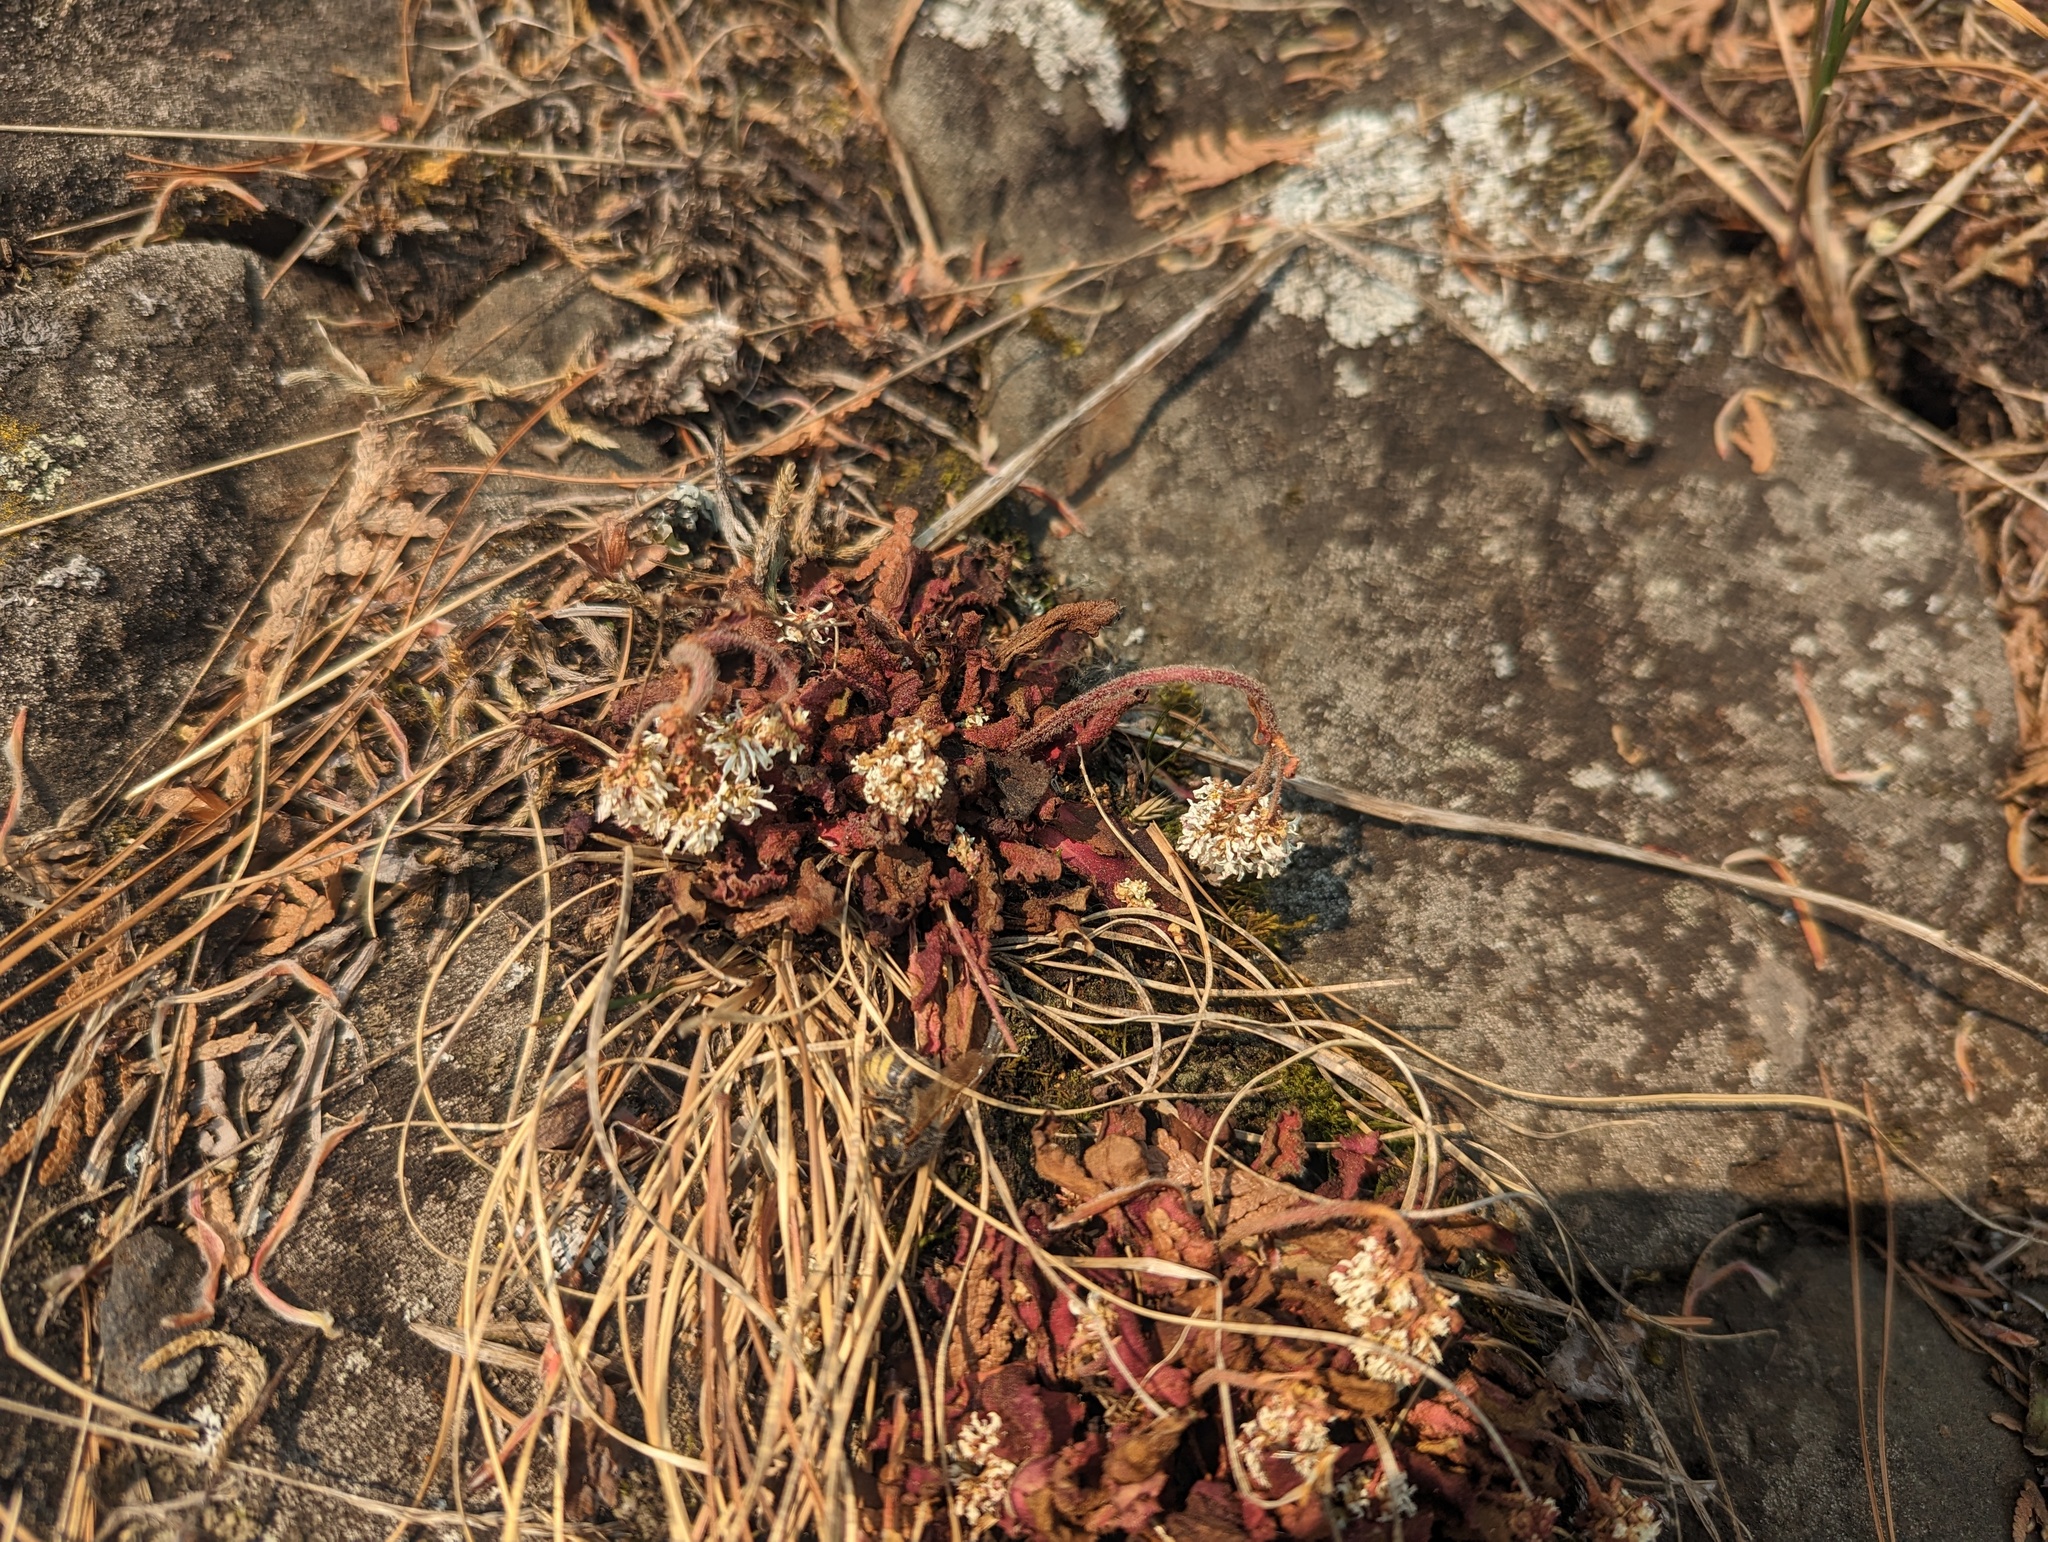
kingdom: Plantae
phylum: Tracheophyta
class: Magnoliopsida
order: Saxifragales
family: Saxifragaceae
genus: Micranthes
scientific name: Micranthes virginiensis
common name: Early saxifrage
